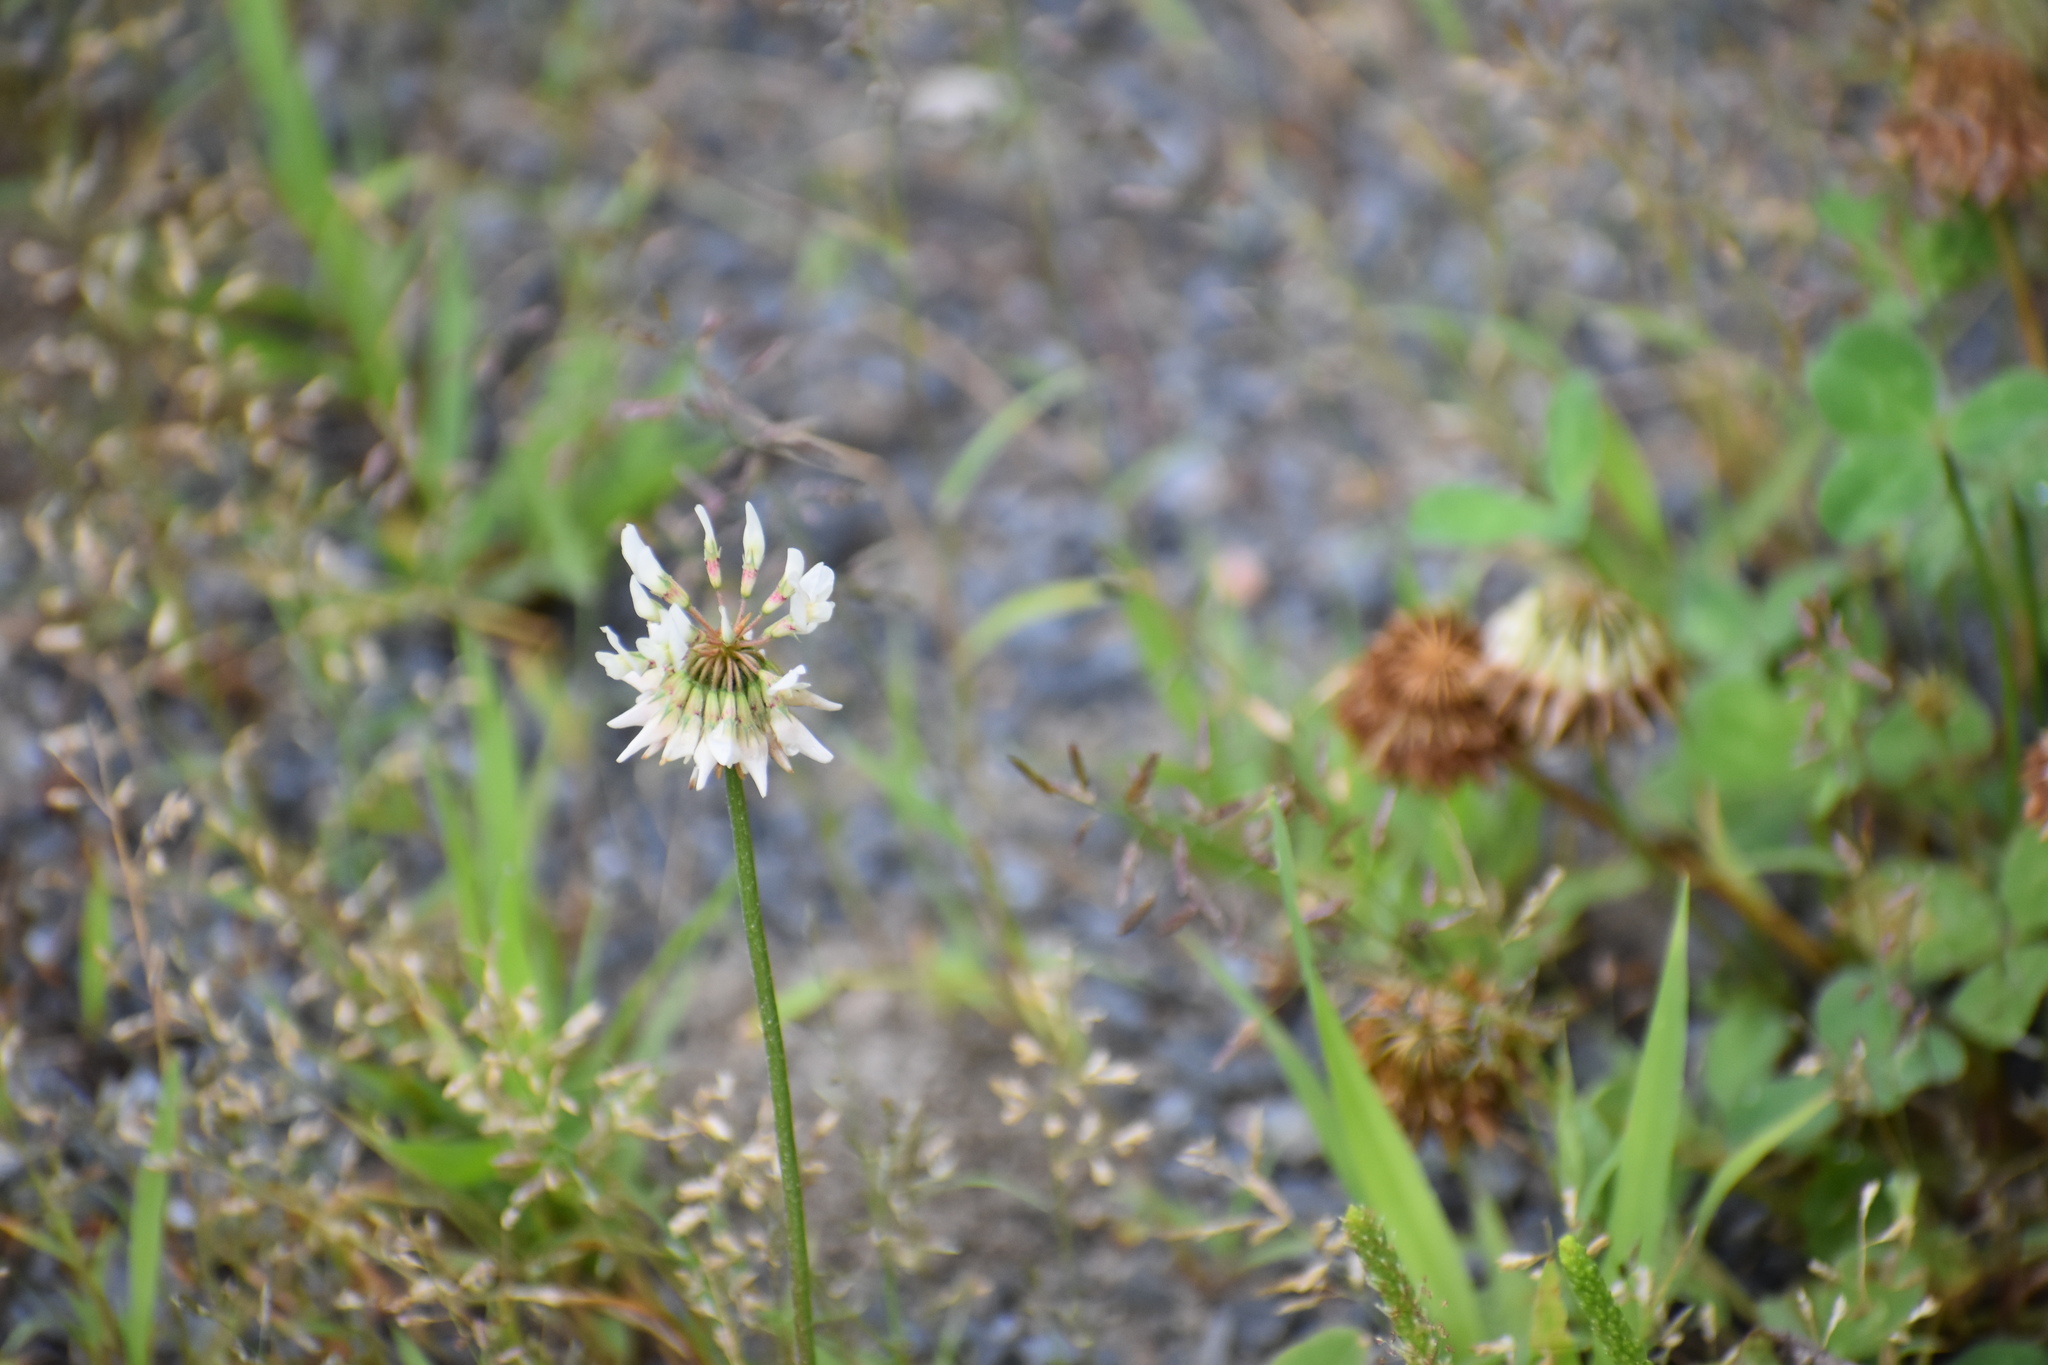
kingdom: Plantae
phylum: Tracheophyta
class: Magnoliopsida
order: Fabales
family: Fabaceae
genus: Trifolium
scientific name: Trifolium repens
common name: White clover
